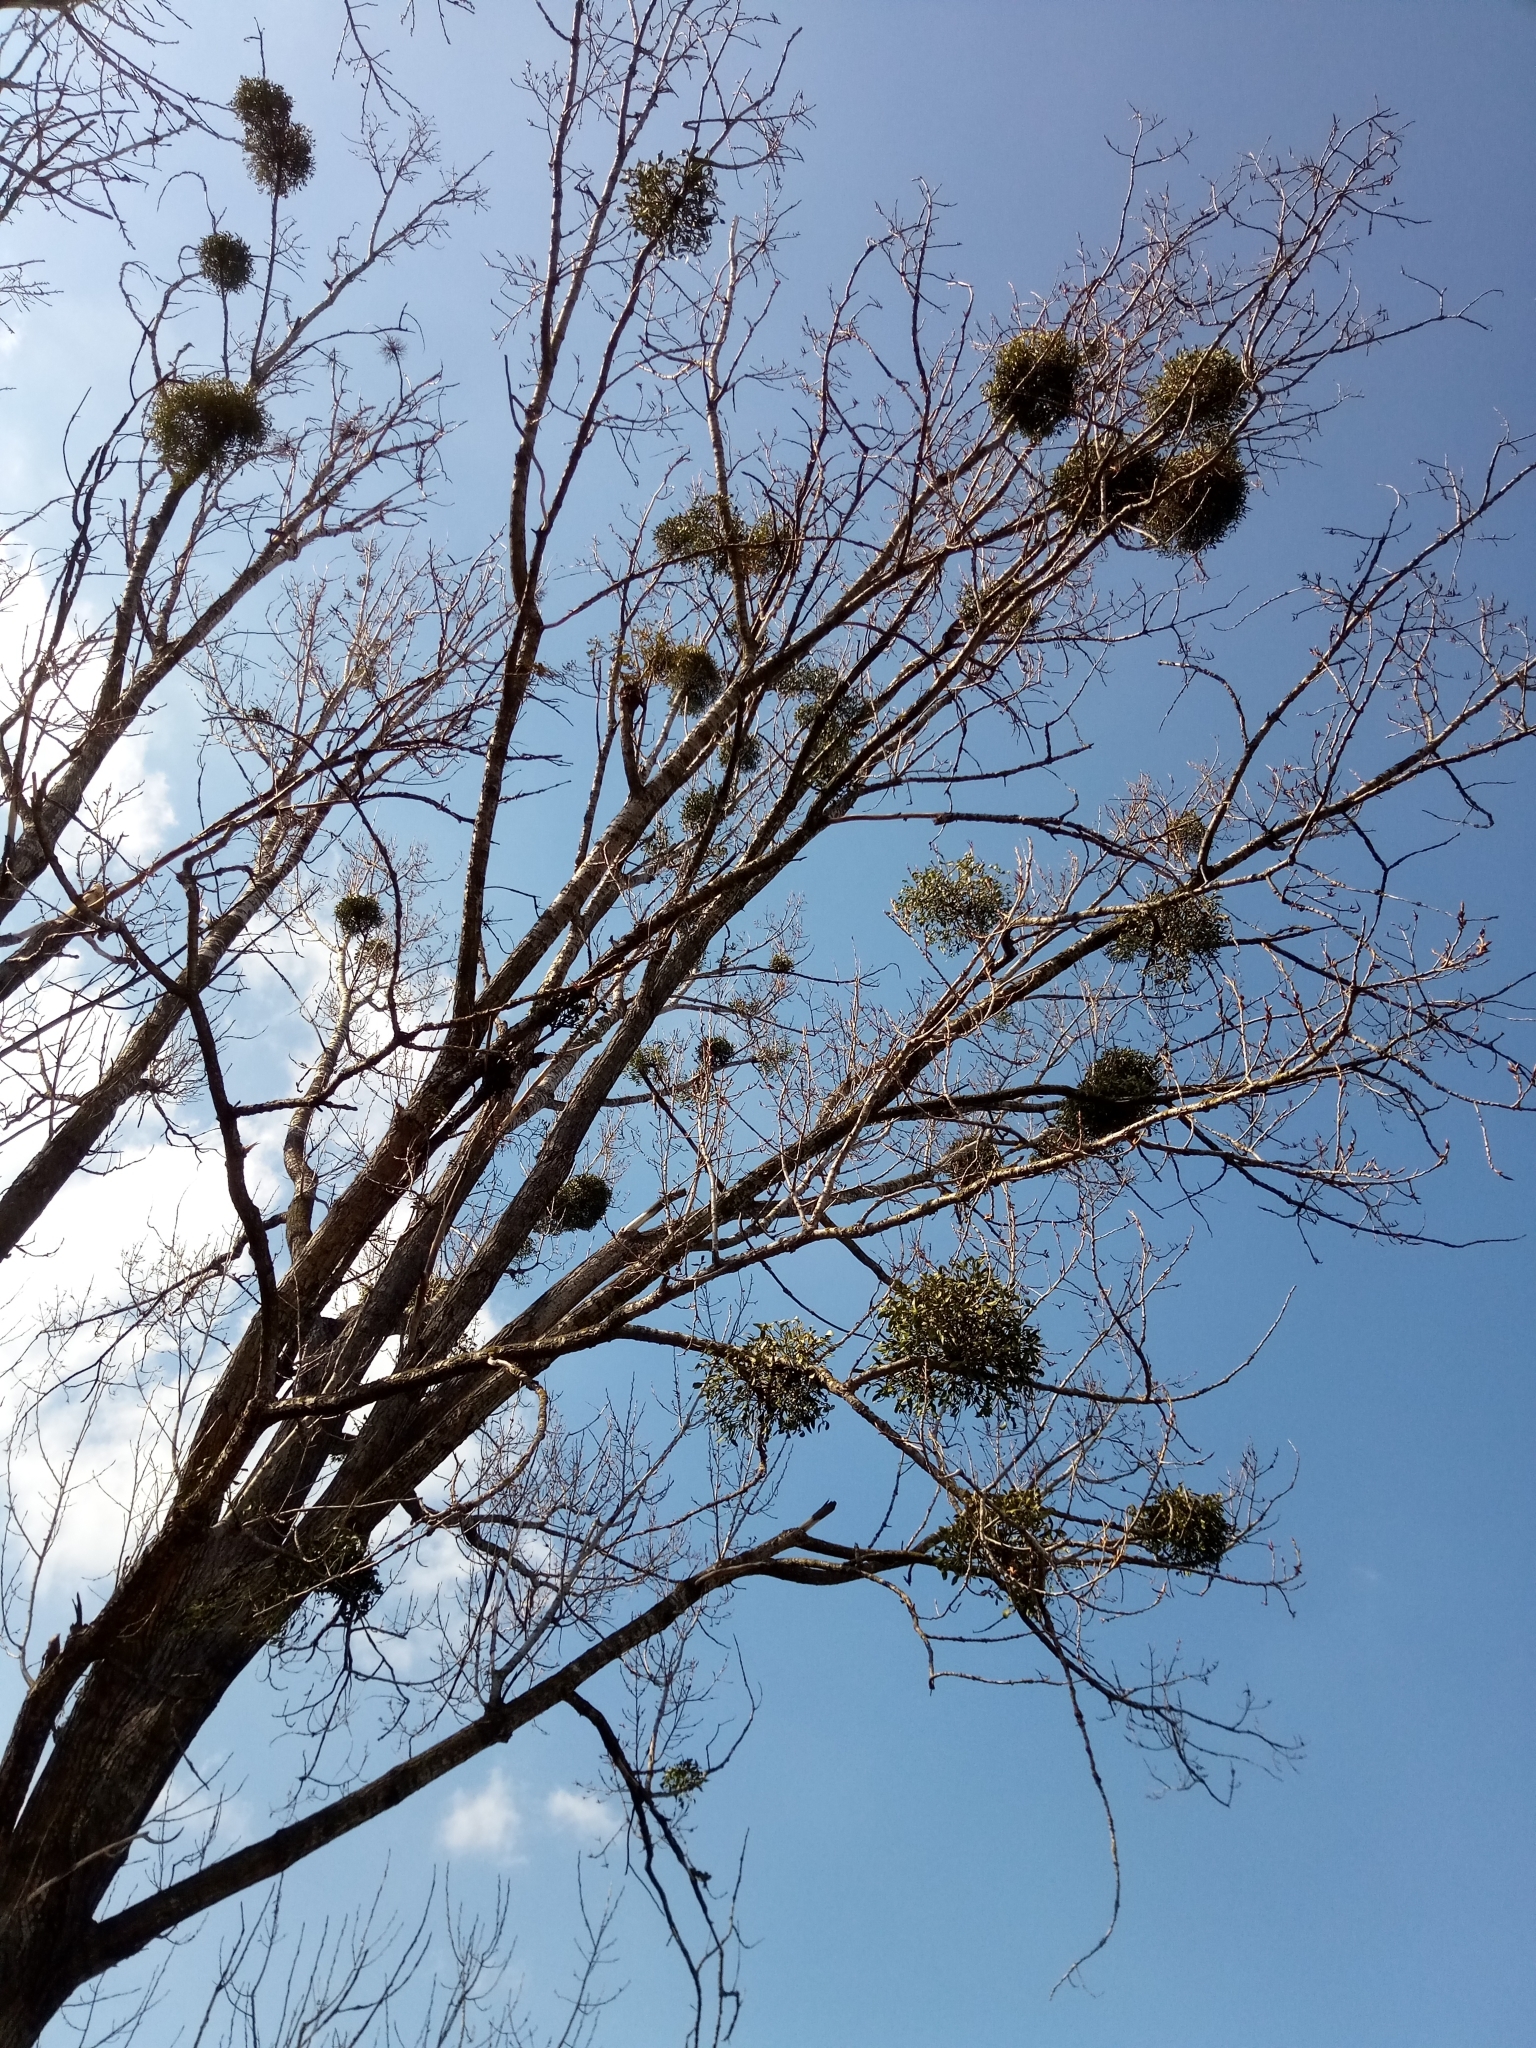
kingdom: Plantae
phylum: Tracheophyta
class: Magnoliopsida
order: Santalales
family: Viscaceae
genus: Viscum
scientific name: Viscum album
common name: Mistletoe
